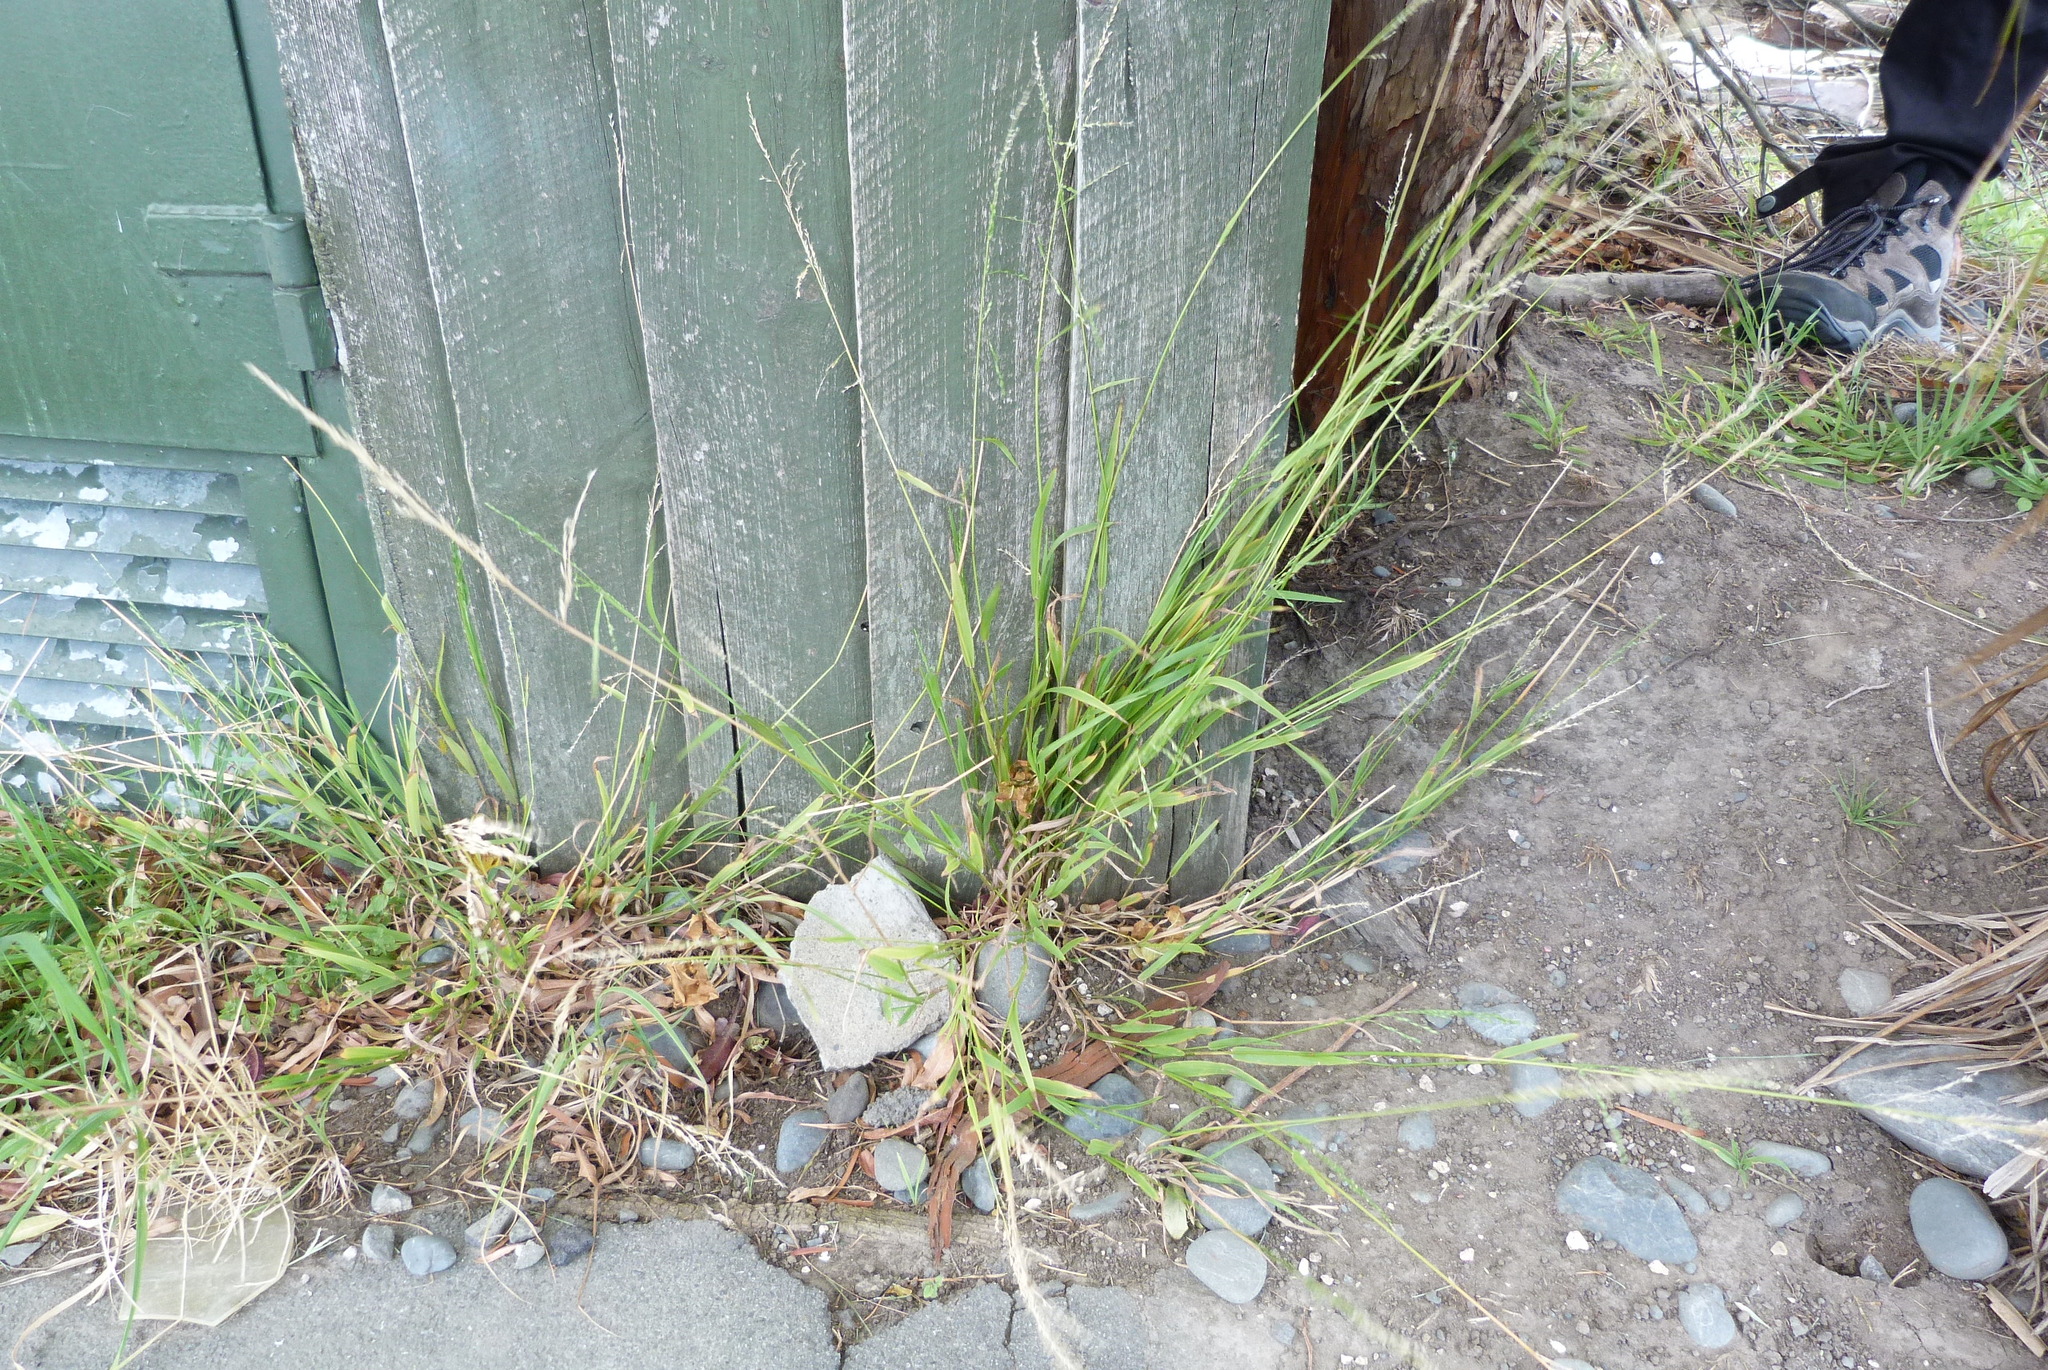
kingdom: Plantae
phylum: Tracheophyta
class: Liliopsida
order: Poales
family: Poaceae
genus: Ehrharta
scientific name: Ehrharta erecta
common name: Panic veldtgrass
